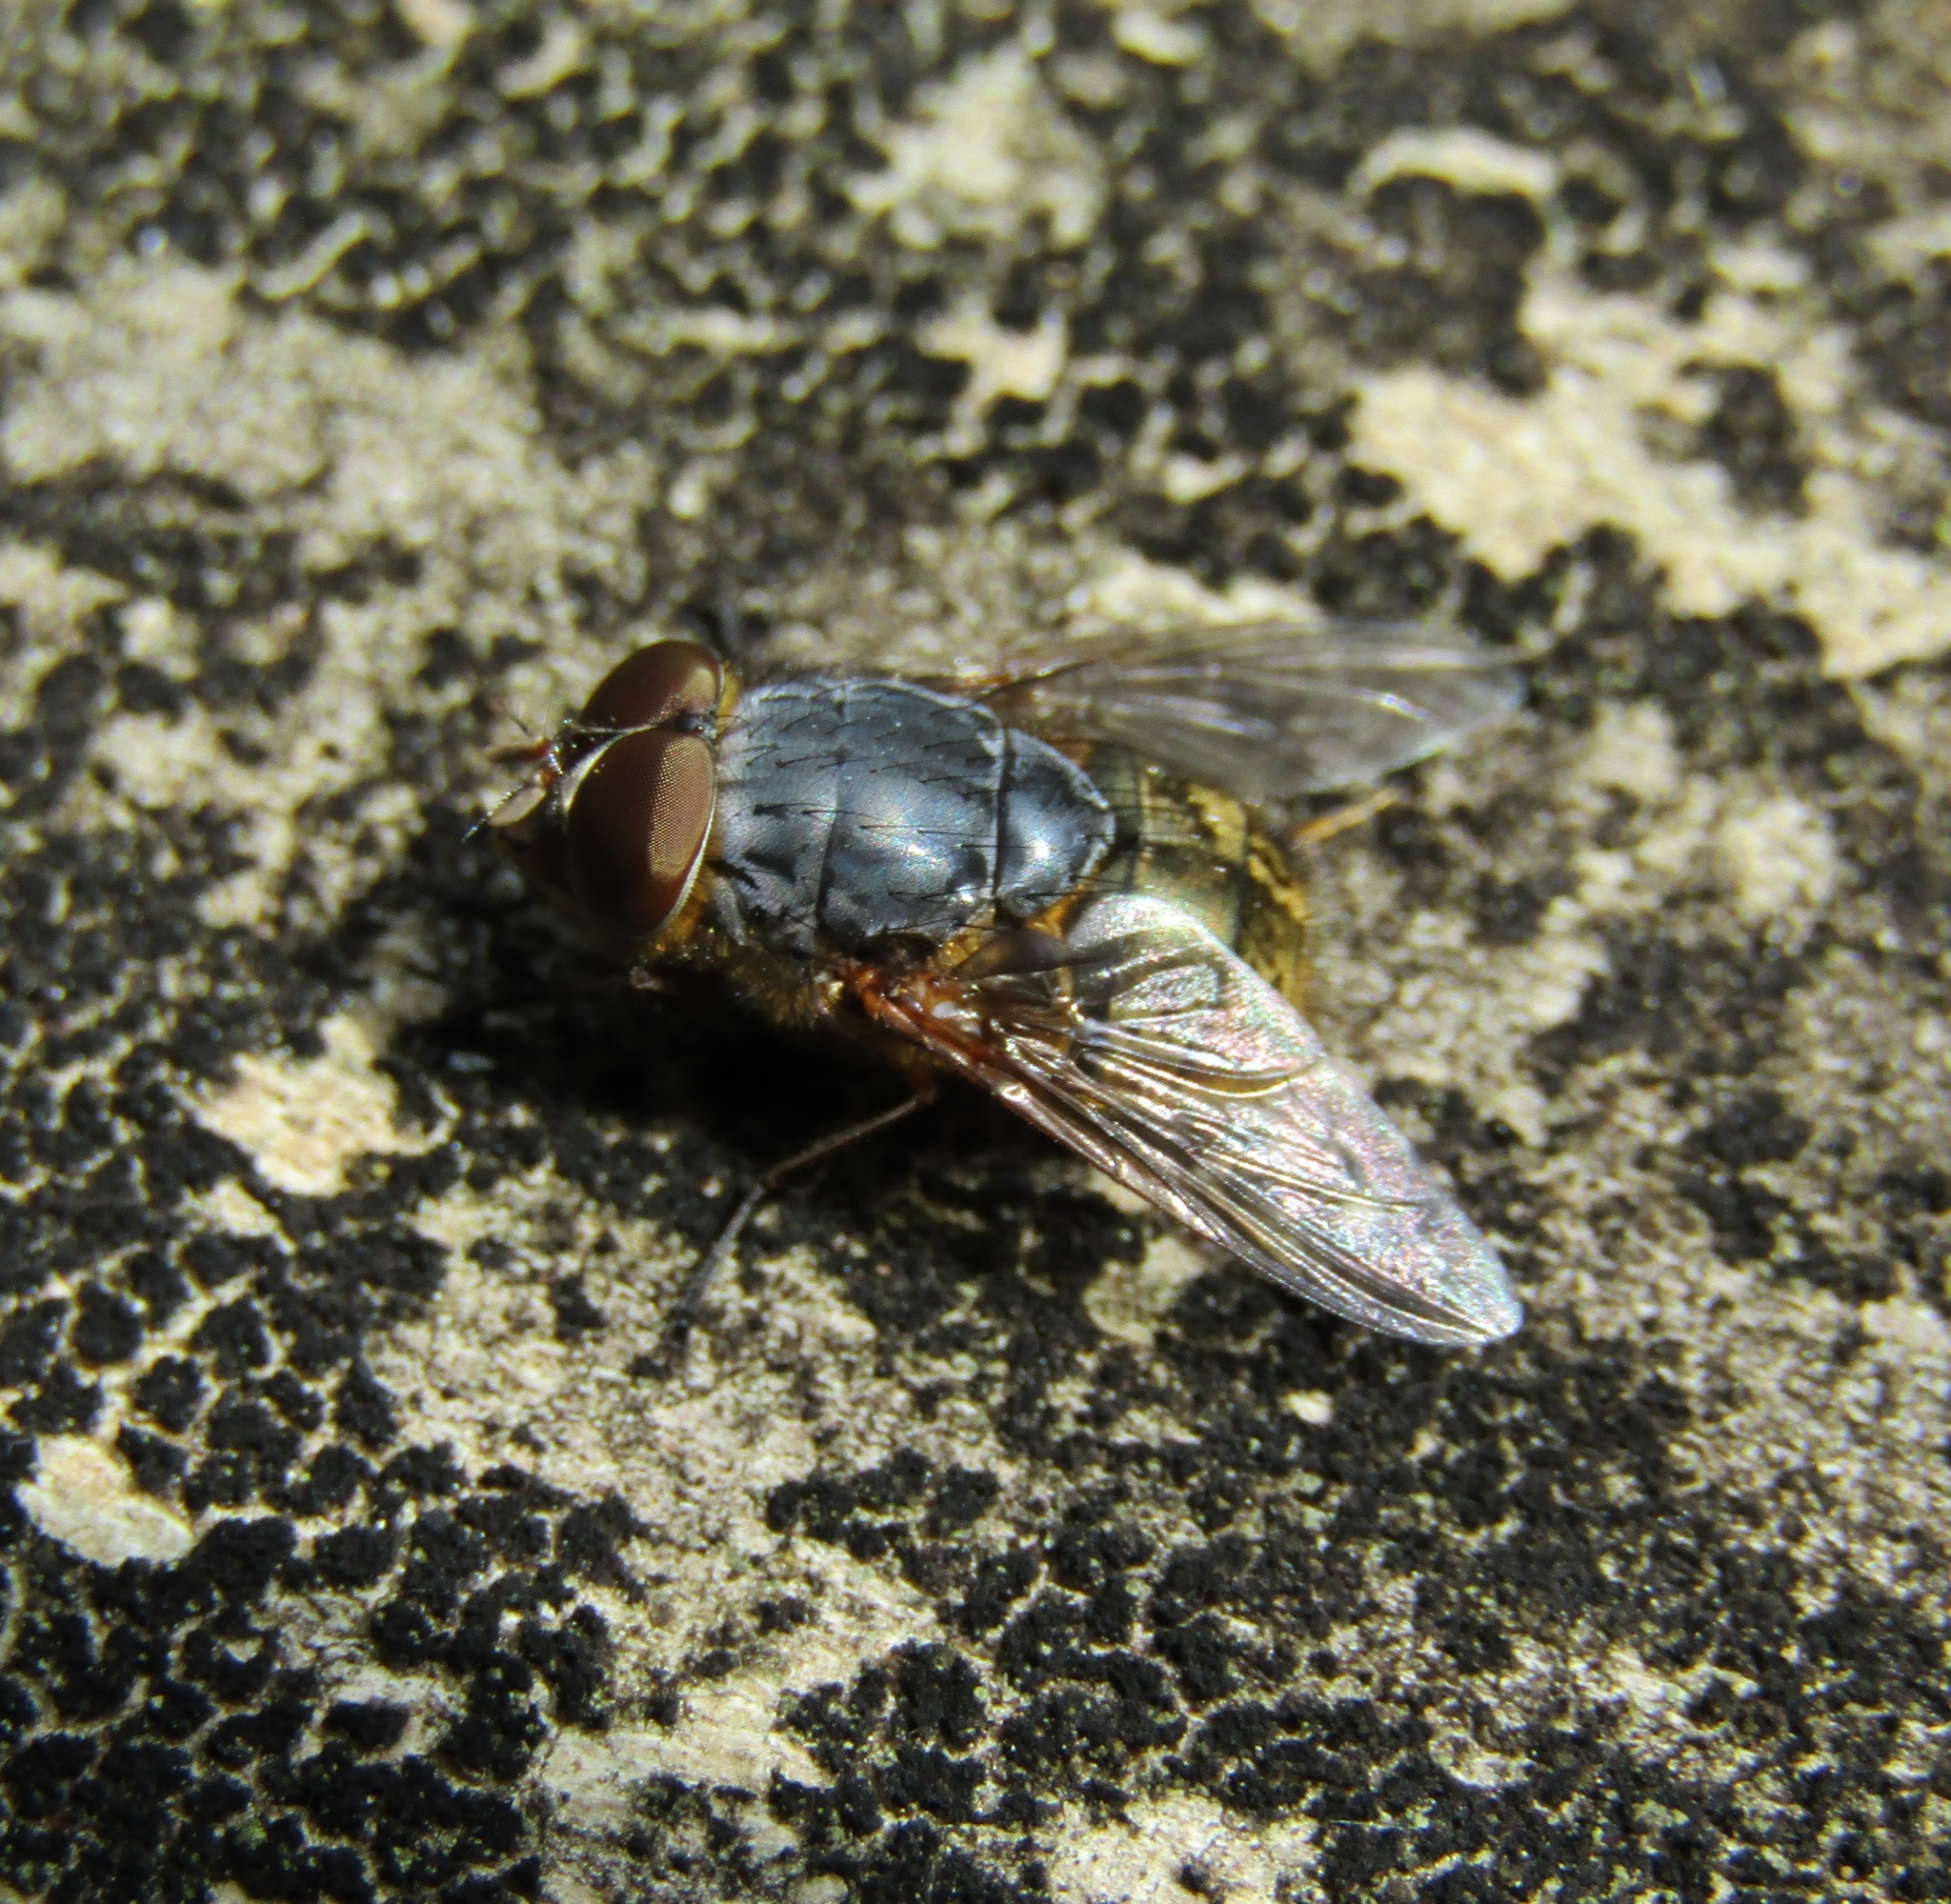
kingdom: Animalia
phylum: Arthropoda
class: Insecta
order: Diptera
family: Calliphoridae
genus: Calliphora
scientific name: Calliphora stygia
